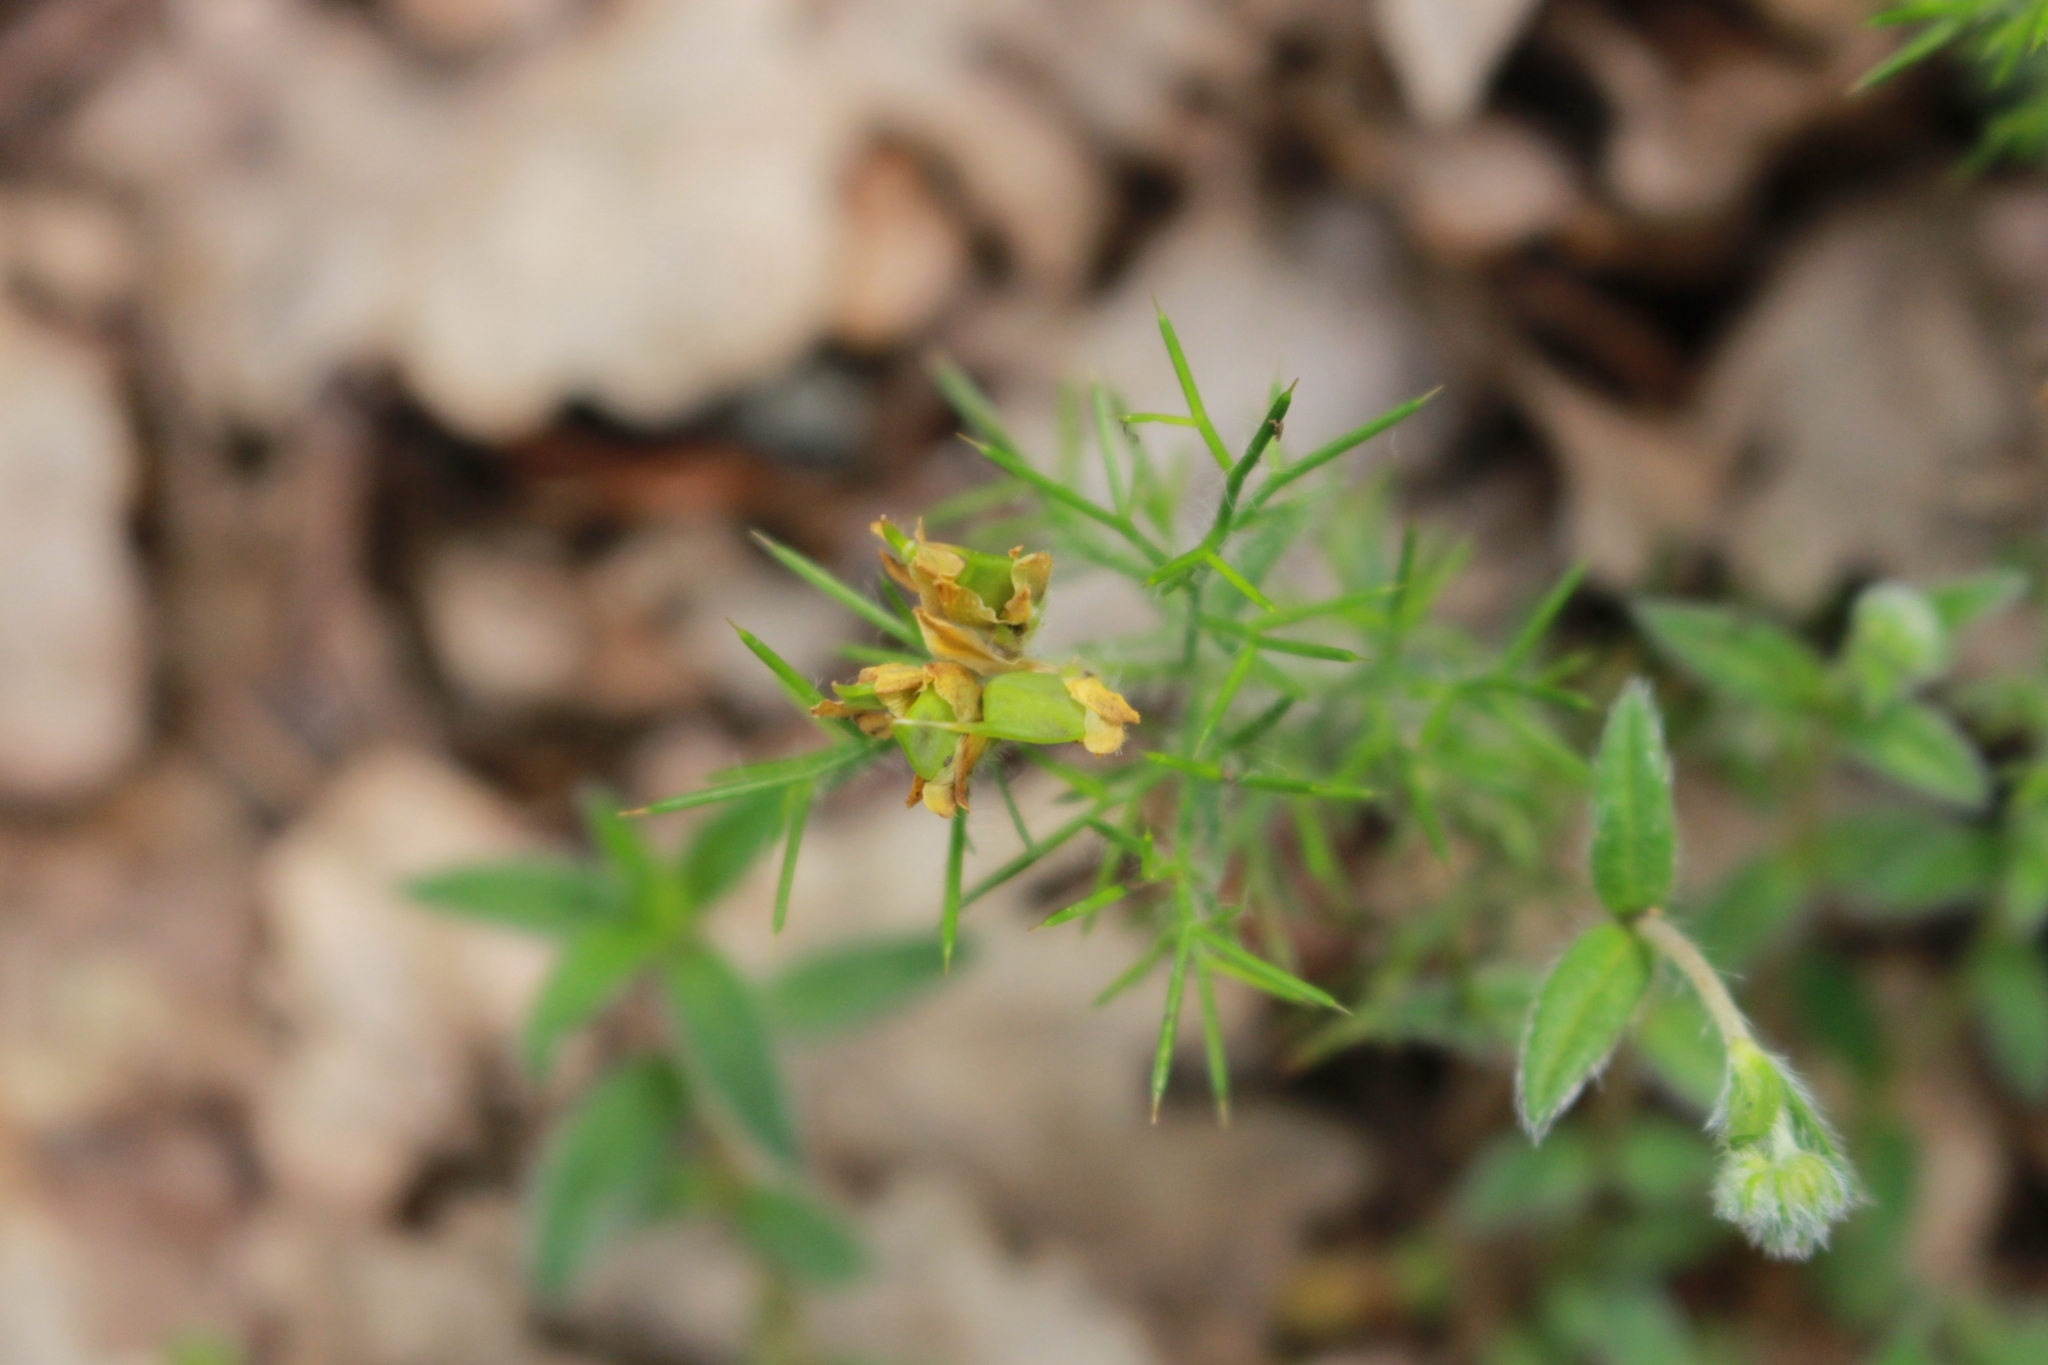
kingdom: Plantae
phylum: Tracheophyta
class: Magnoliopsida
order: Fabales
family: Fabaceae
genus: Genista
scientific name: Genista hispanica
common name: Spanish gorse
